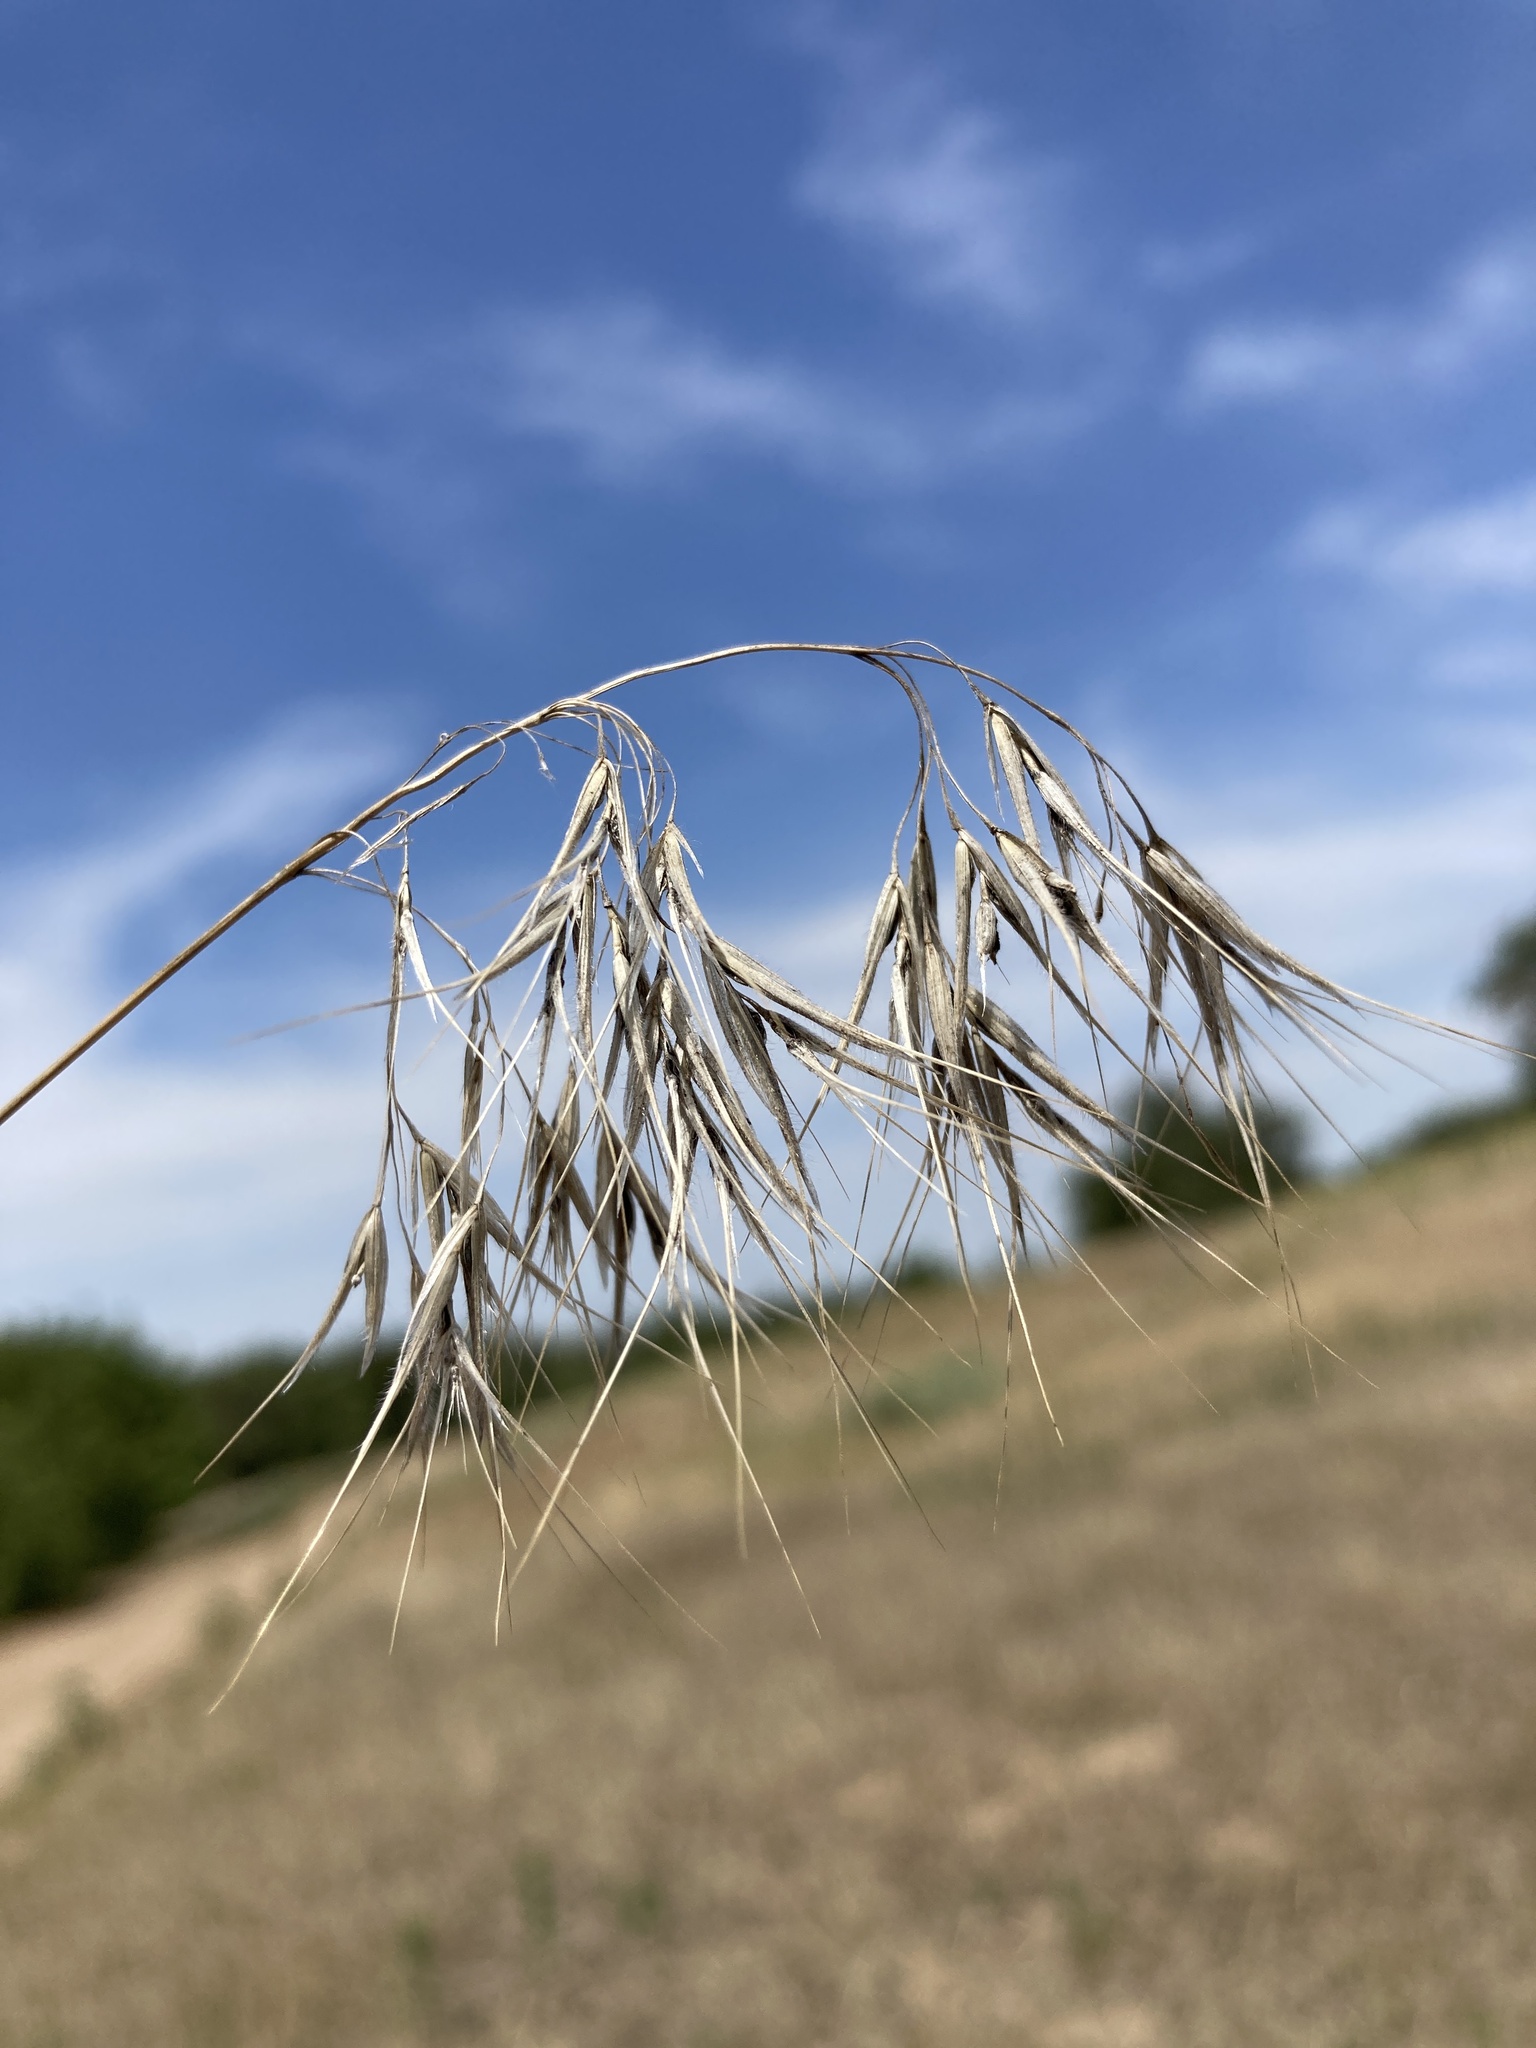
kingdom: Plantae
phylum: Tracheophyta
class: Liliopsida
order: Poales
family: Poaceae
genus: Bromus
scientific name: Bromus tectorum
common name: Cheatgrass
